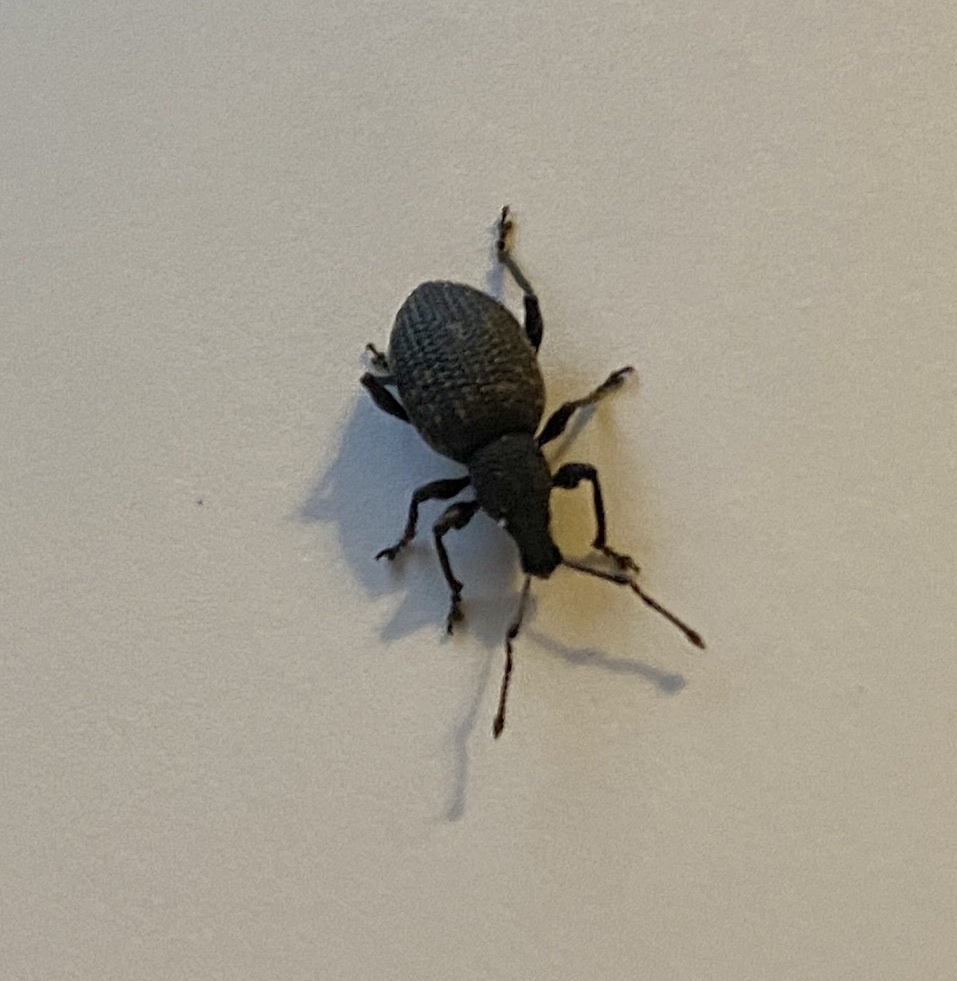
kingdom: Animalia
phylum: Arthropoda
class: Insecta
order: Coleoptera
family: Curculionidae
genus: Otiorhynchus
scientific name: Otiorhynchus sulcatus
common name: Black vine weevil
